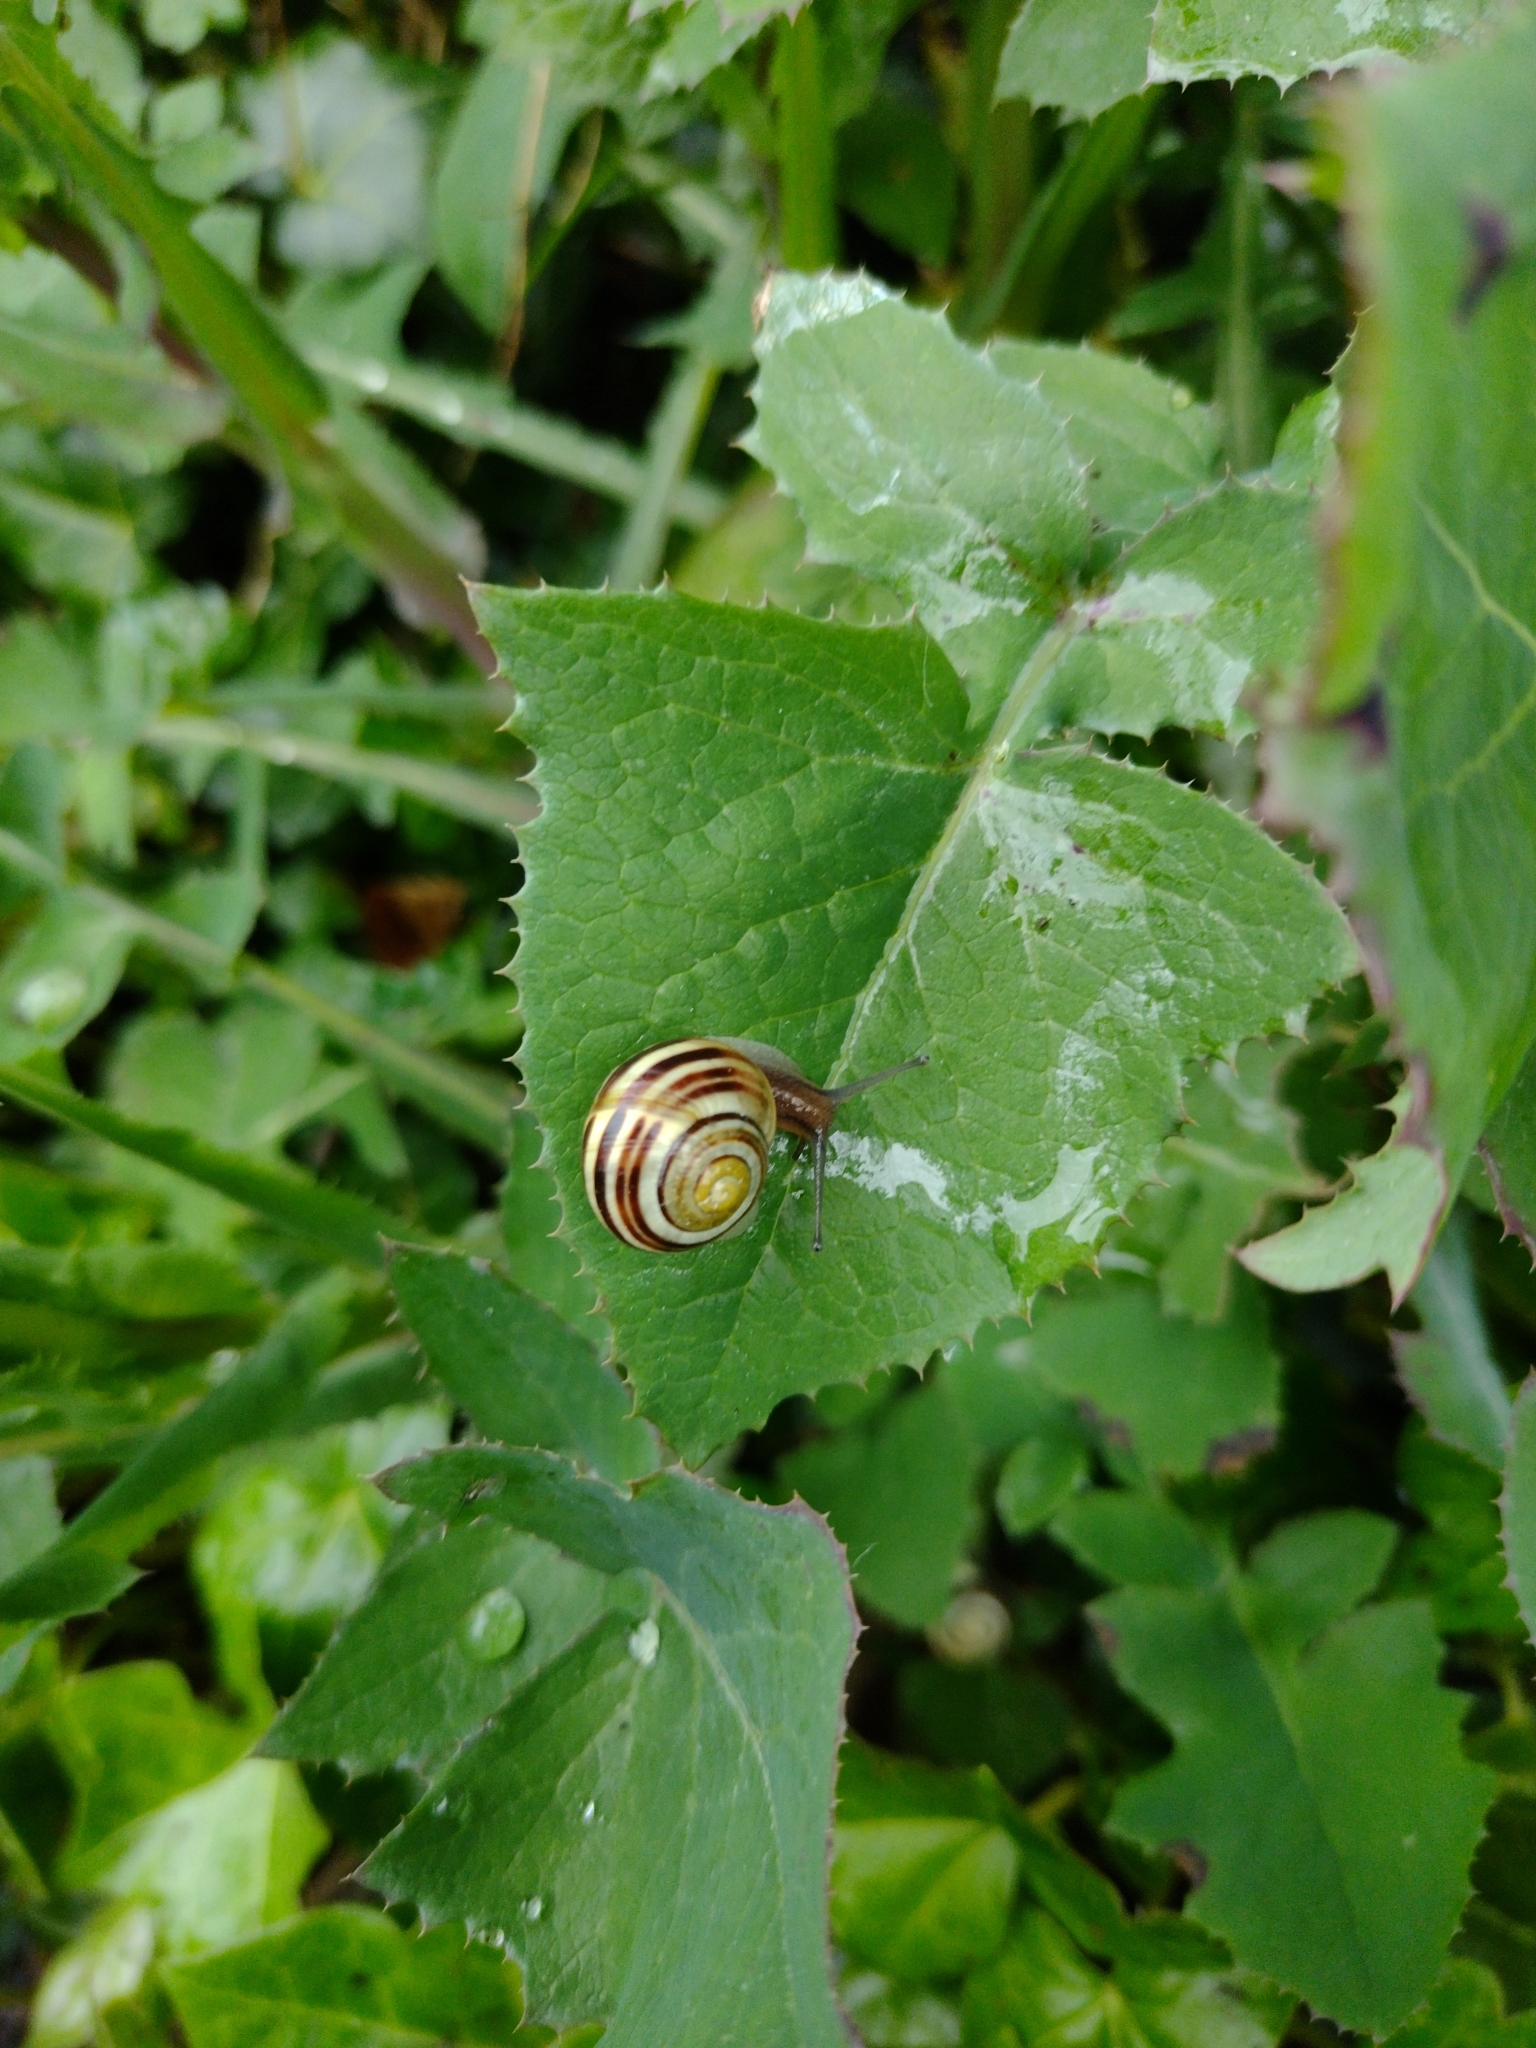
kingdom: Animalia
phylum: Mollusca
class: Gastropoda
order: Stylommatophora
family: Helicidae
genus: Cepaea
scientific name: Cepaea hortensis
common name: White-lip gardensnail
